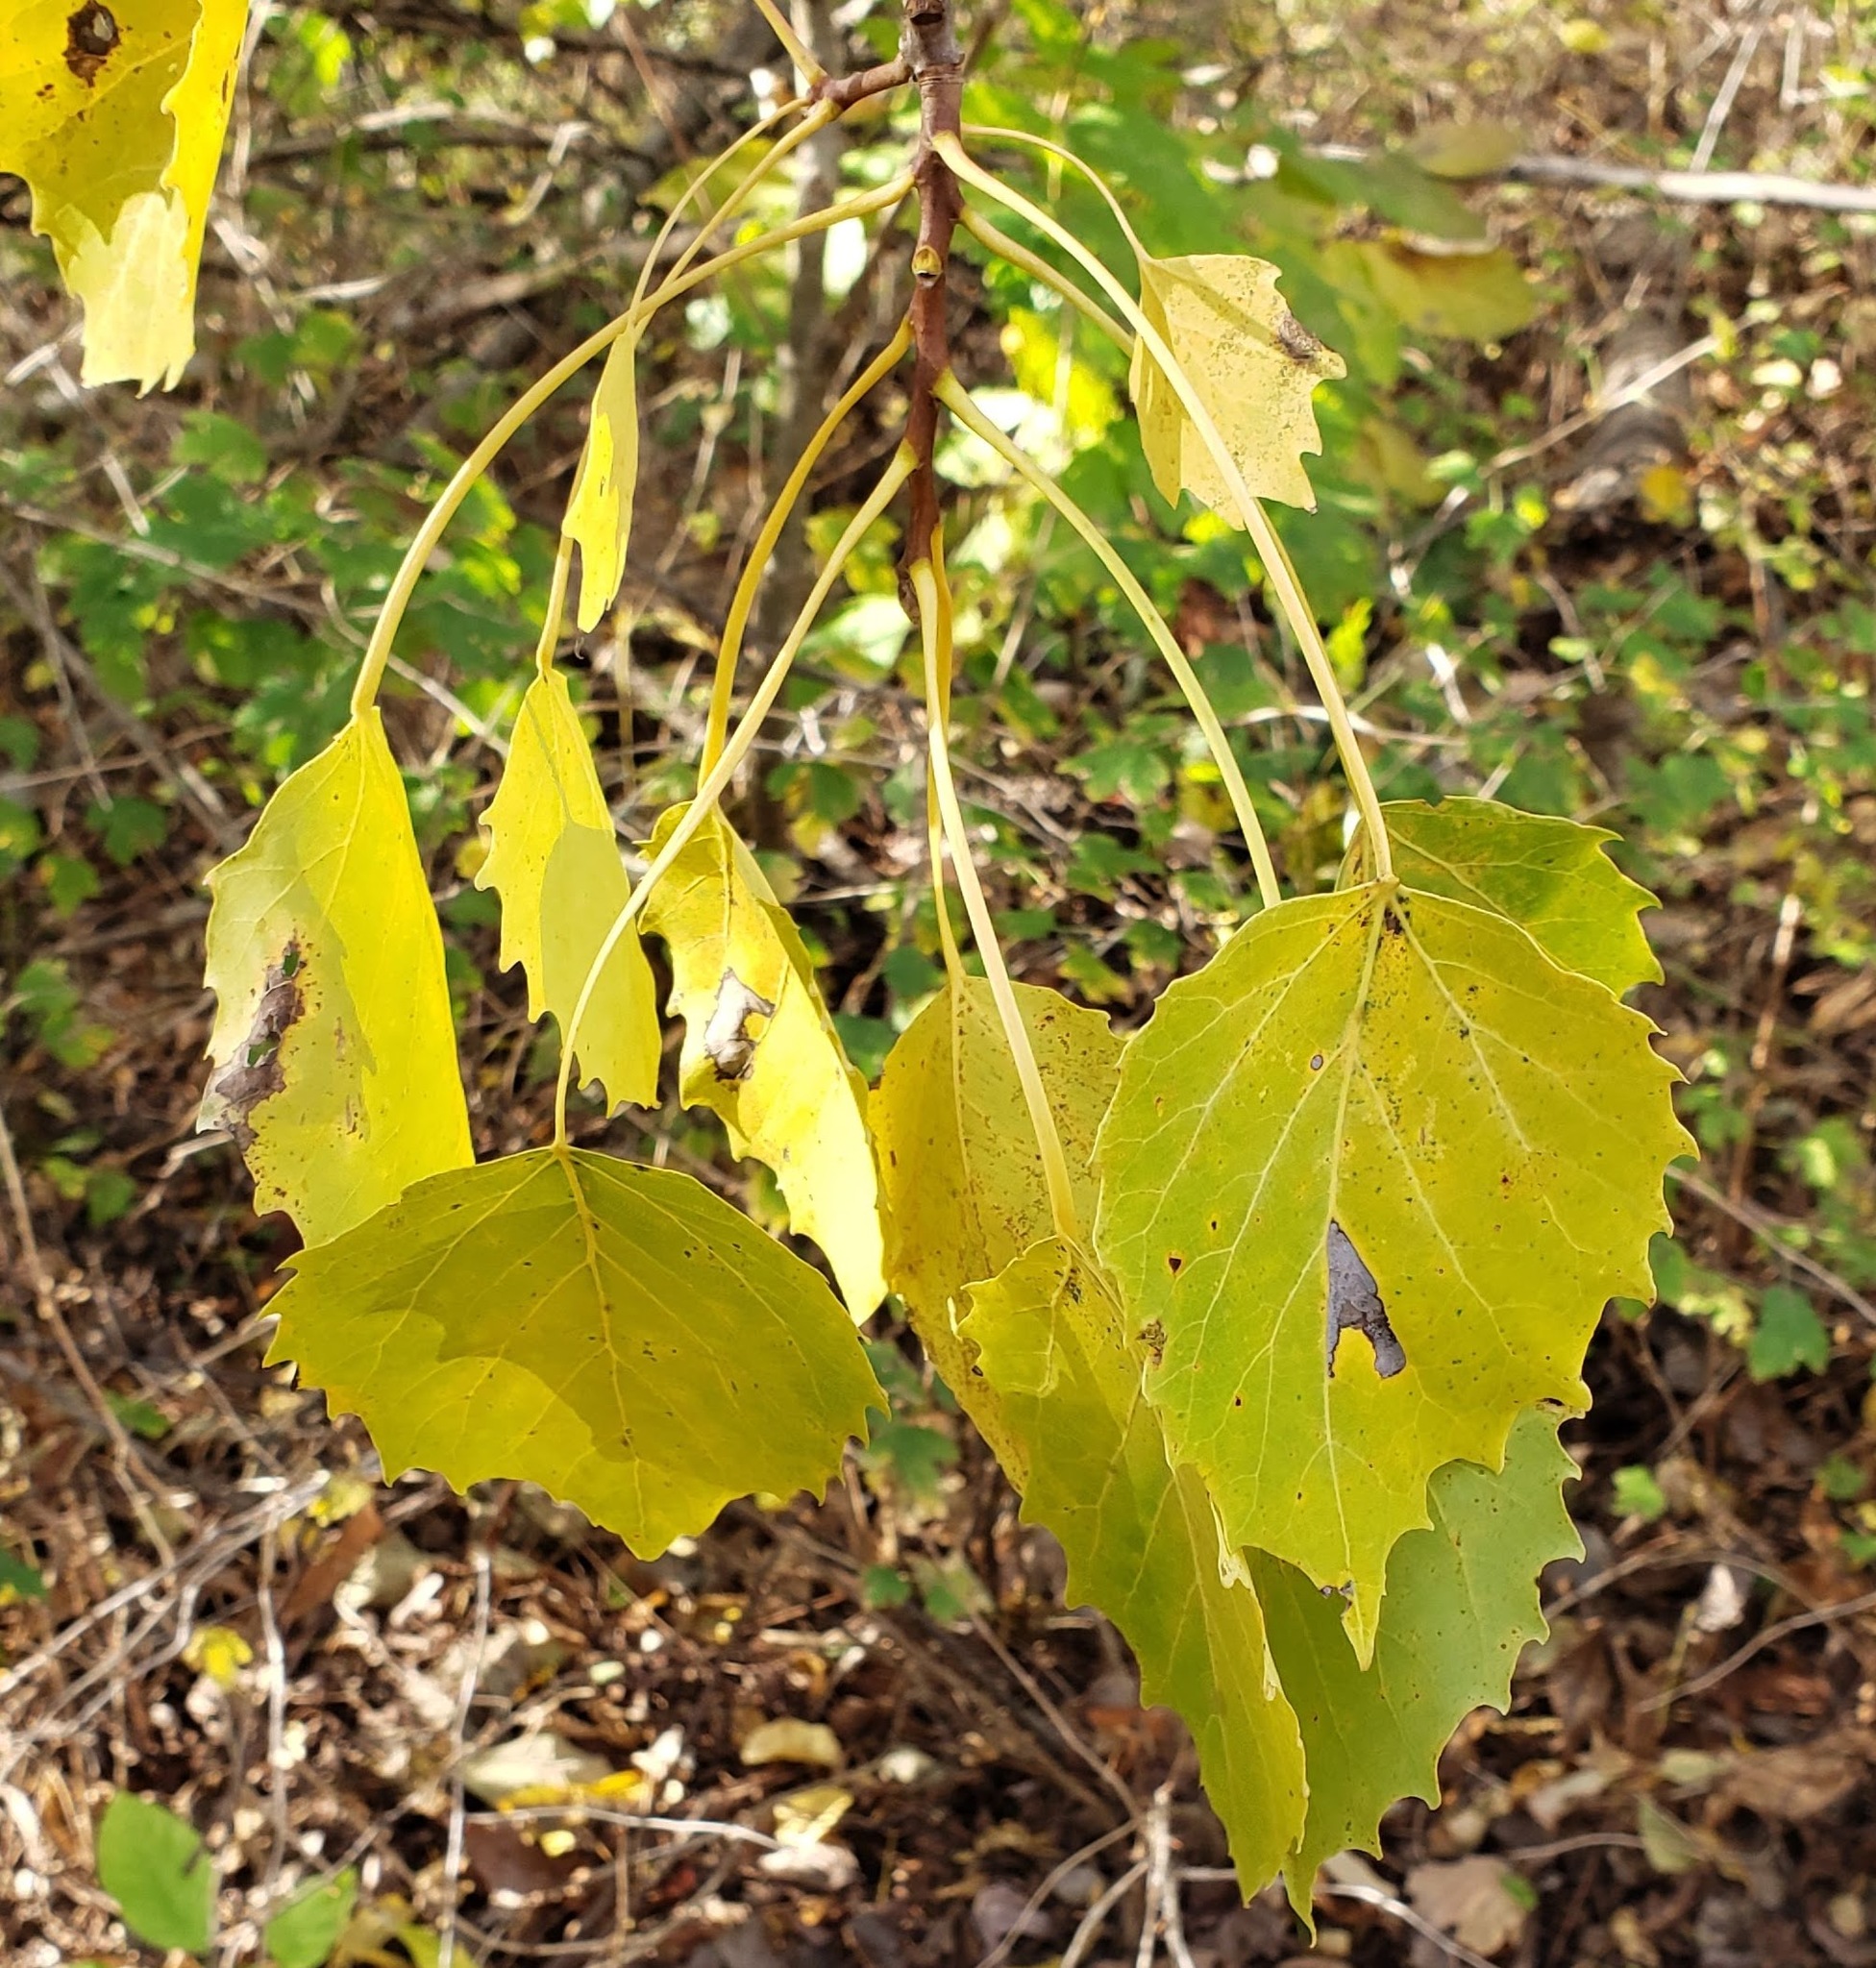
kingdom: Plantae
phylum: Tracheophyta
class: Magnoliopsida
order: Malpighiales
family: Salicaceae
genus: Populus
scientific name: Populus grandidentata
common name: Bigtooth aspen
